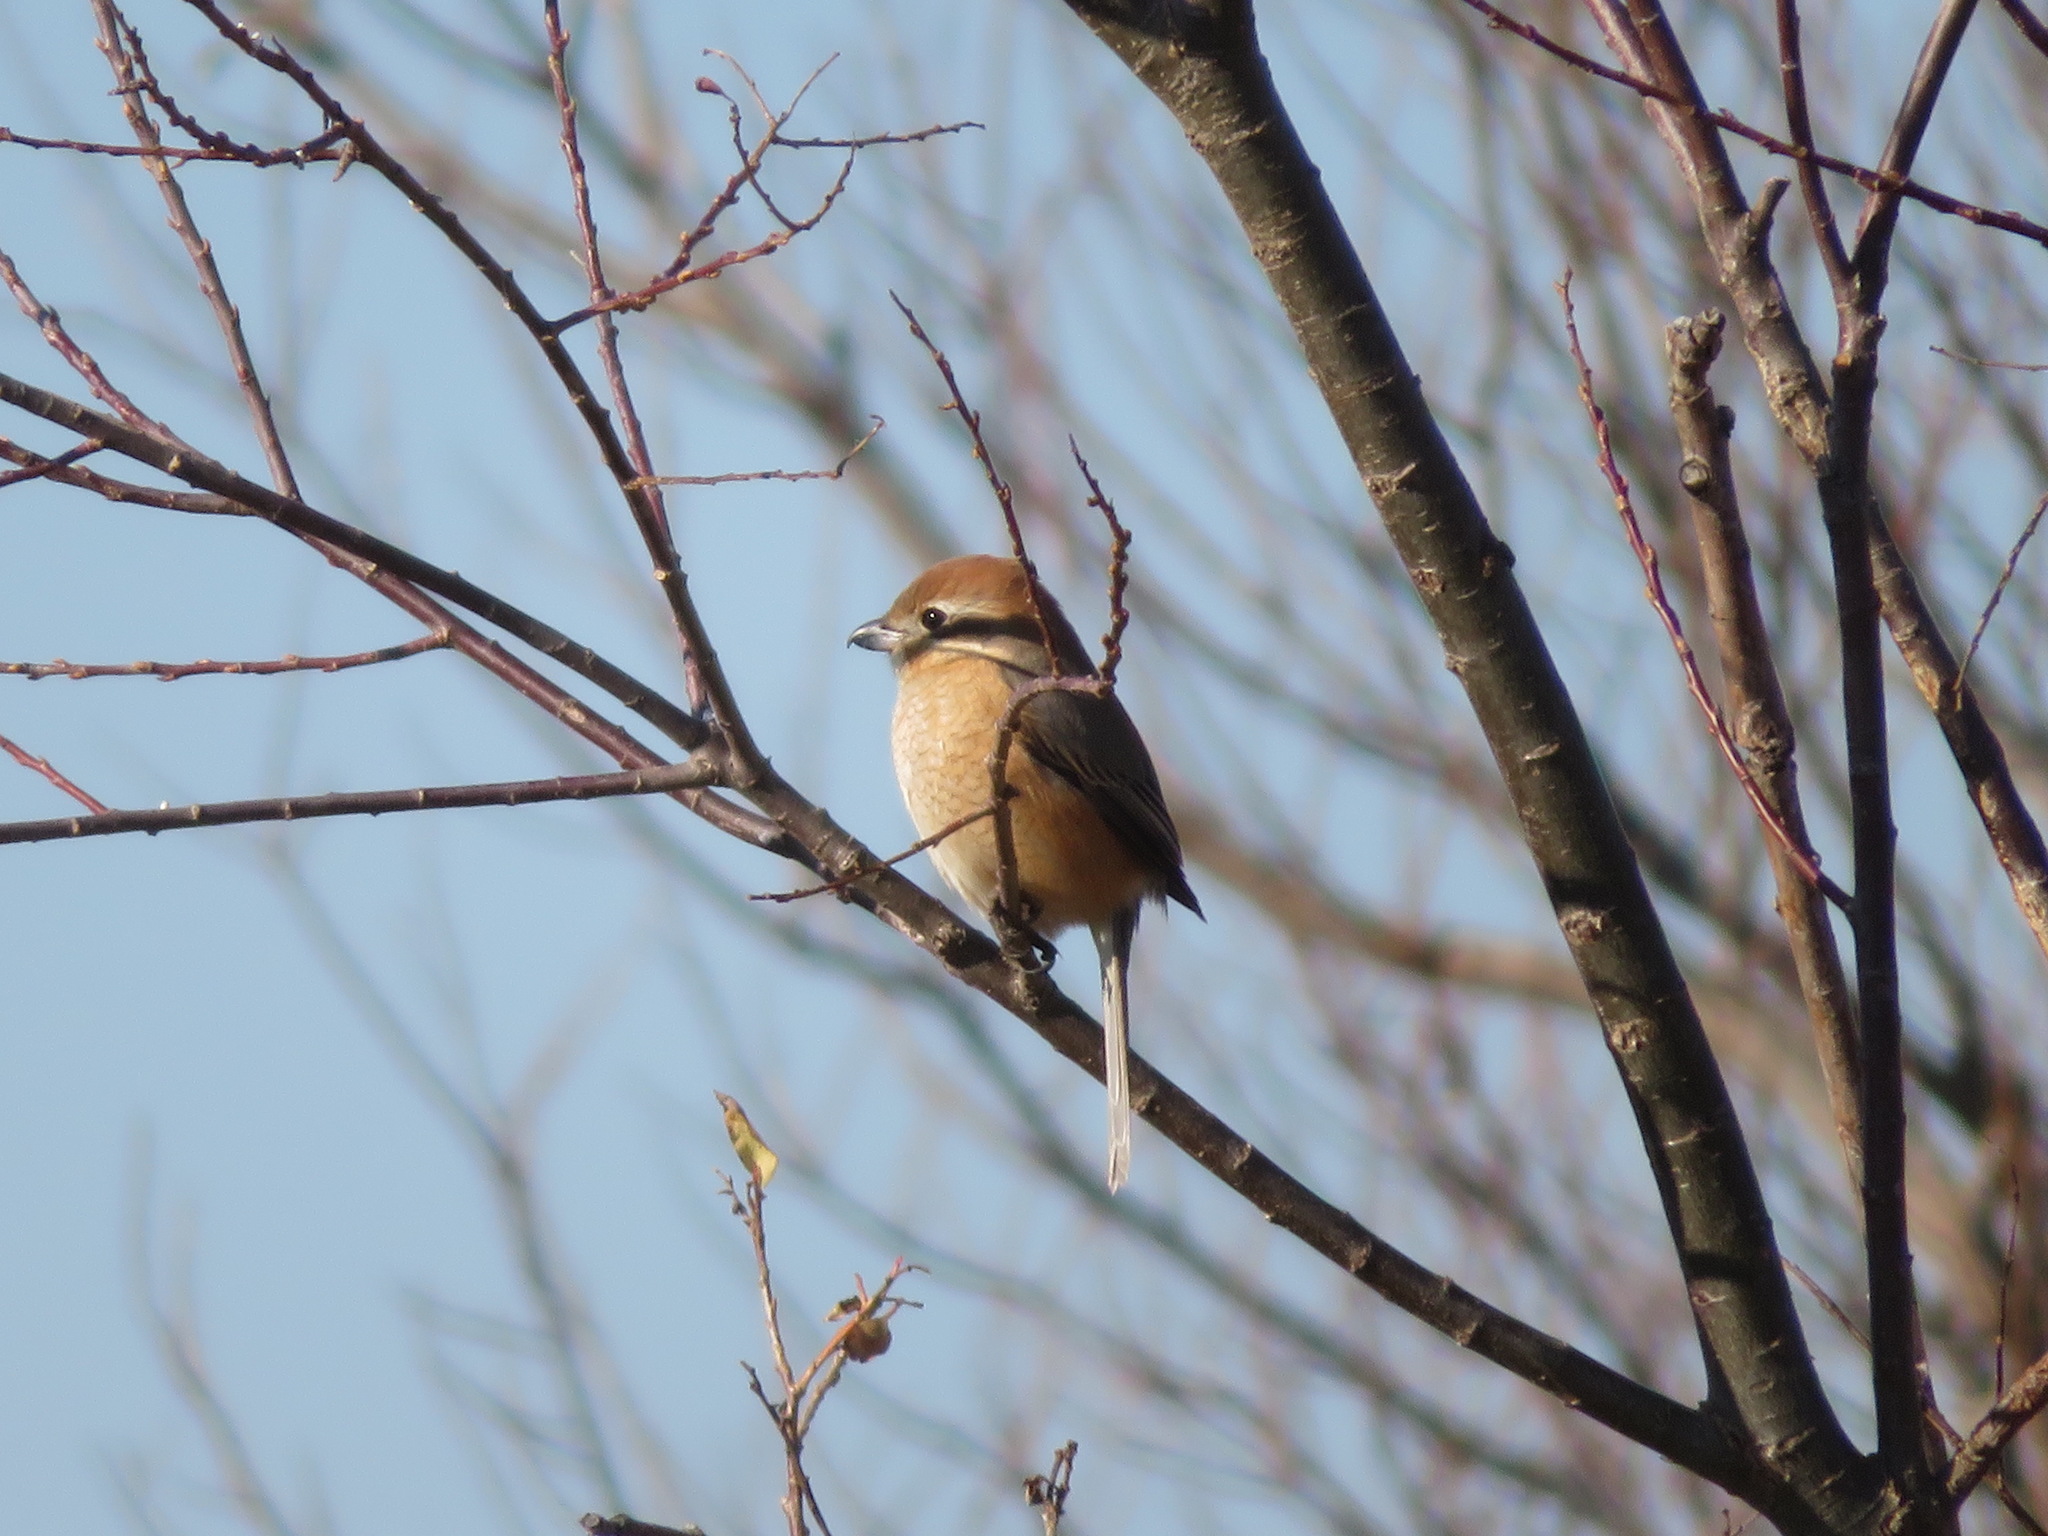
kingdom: Animalia
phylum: Chordata
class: Aves
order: Passeriformes
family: Laniidae
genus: Lanius
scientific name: Lanius bucephalus
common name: Bull-headed shrike
